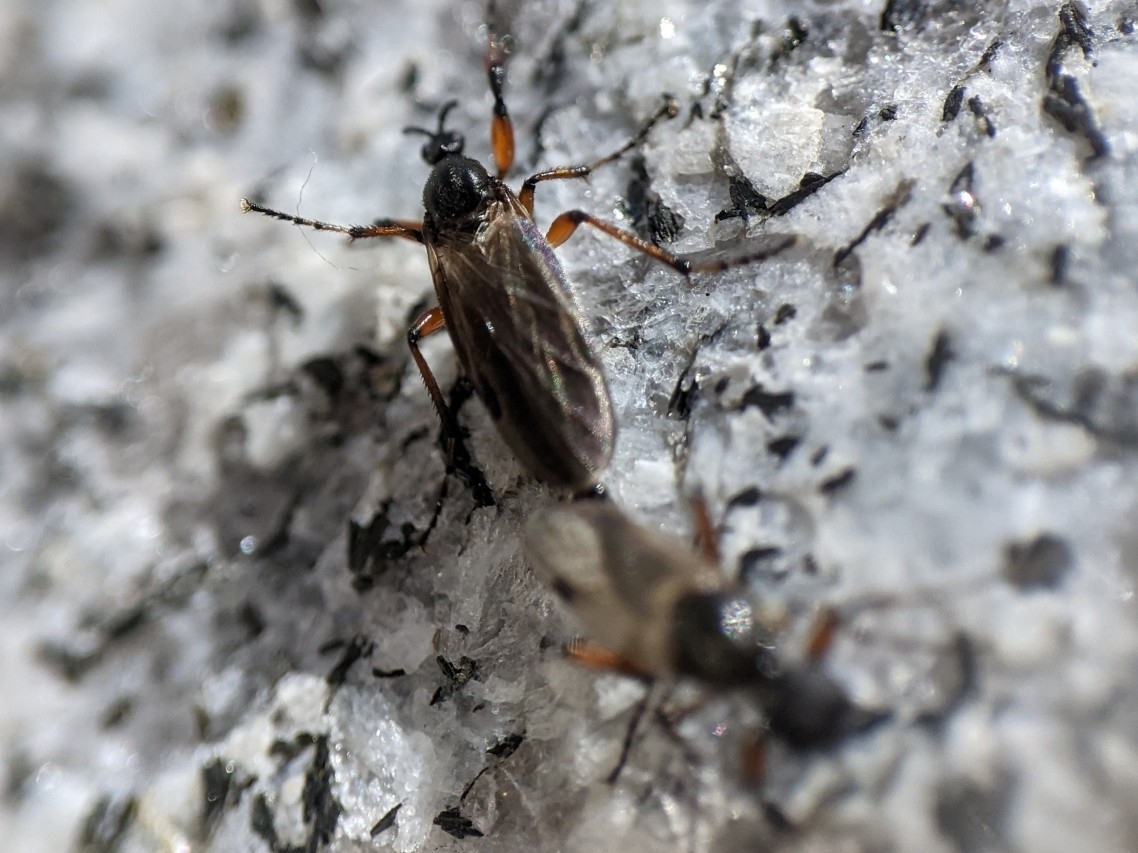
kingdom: Animalia
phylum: Arthropoda
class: Insecta
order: Diptera
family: Bibionidae
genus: Bibio
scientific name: Bibio
